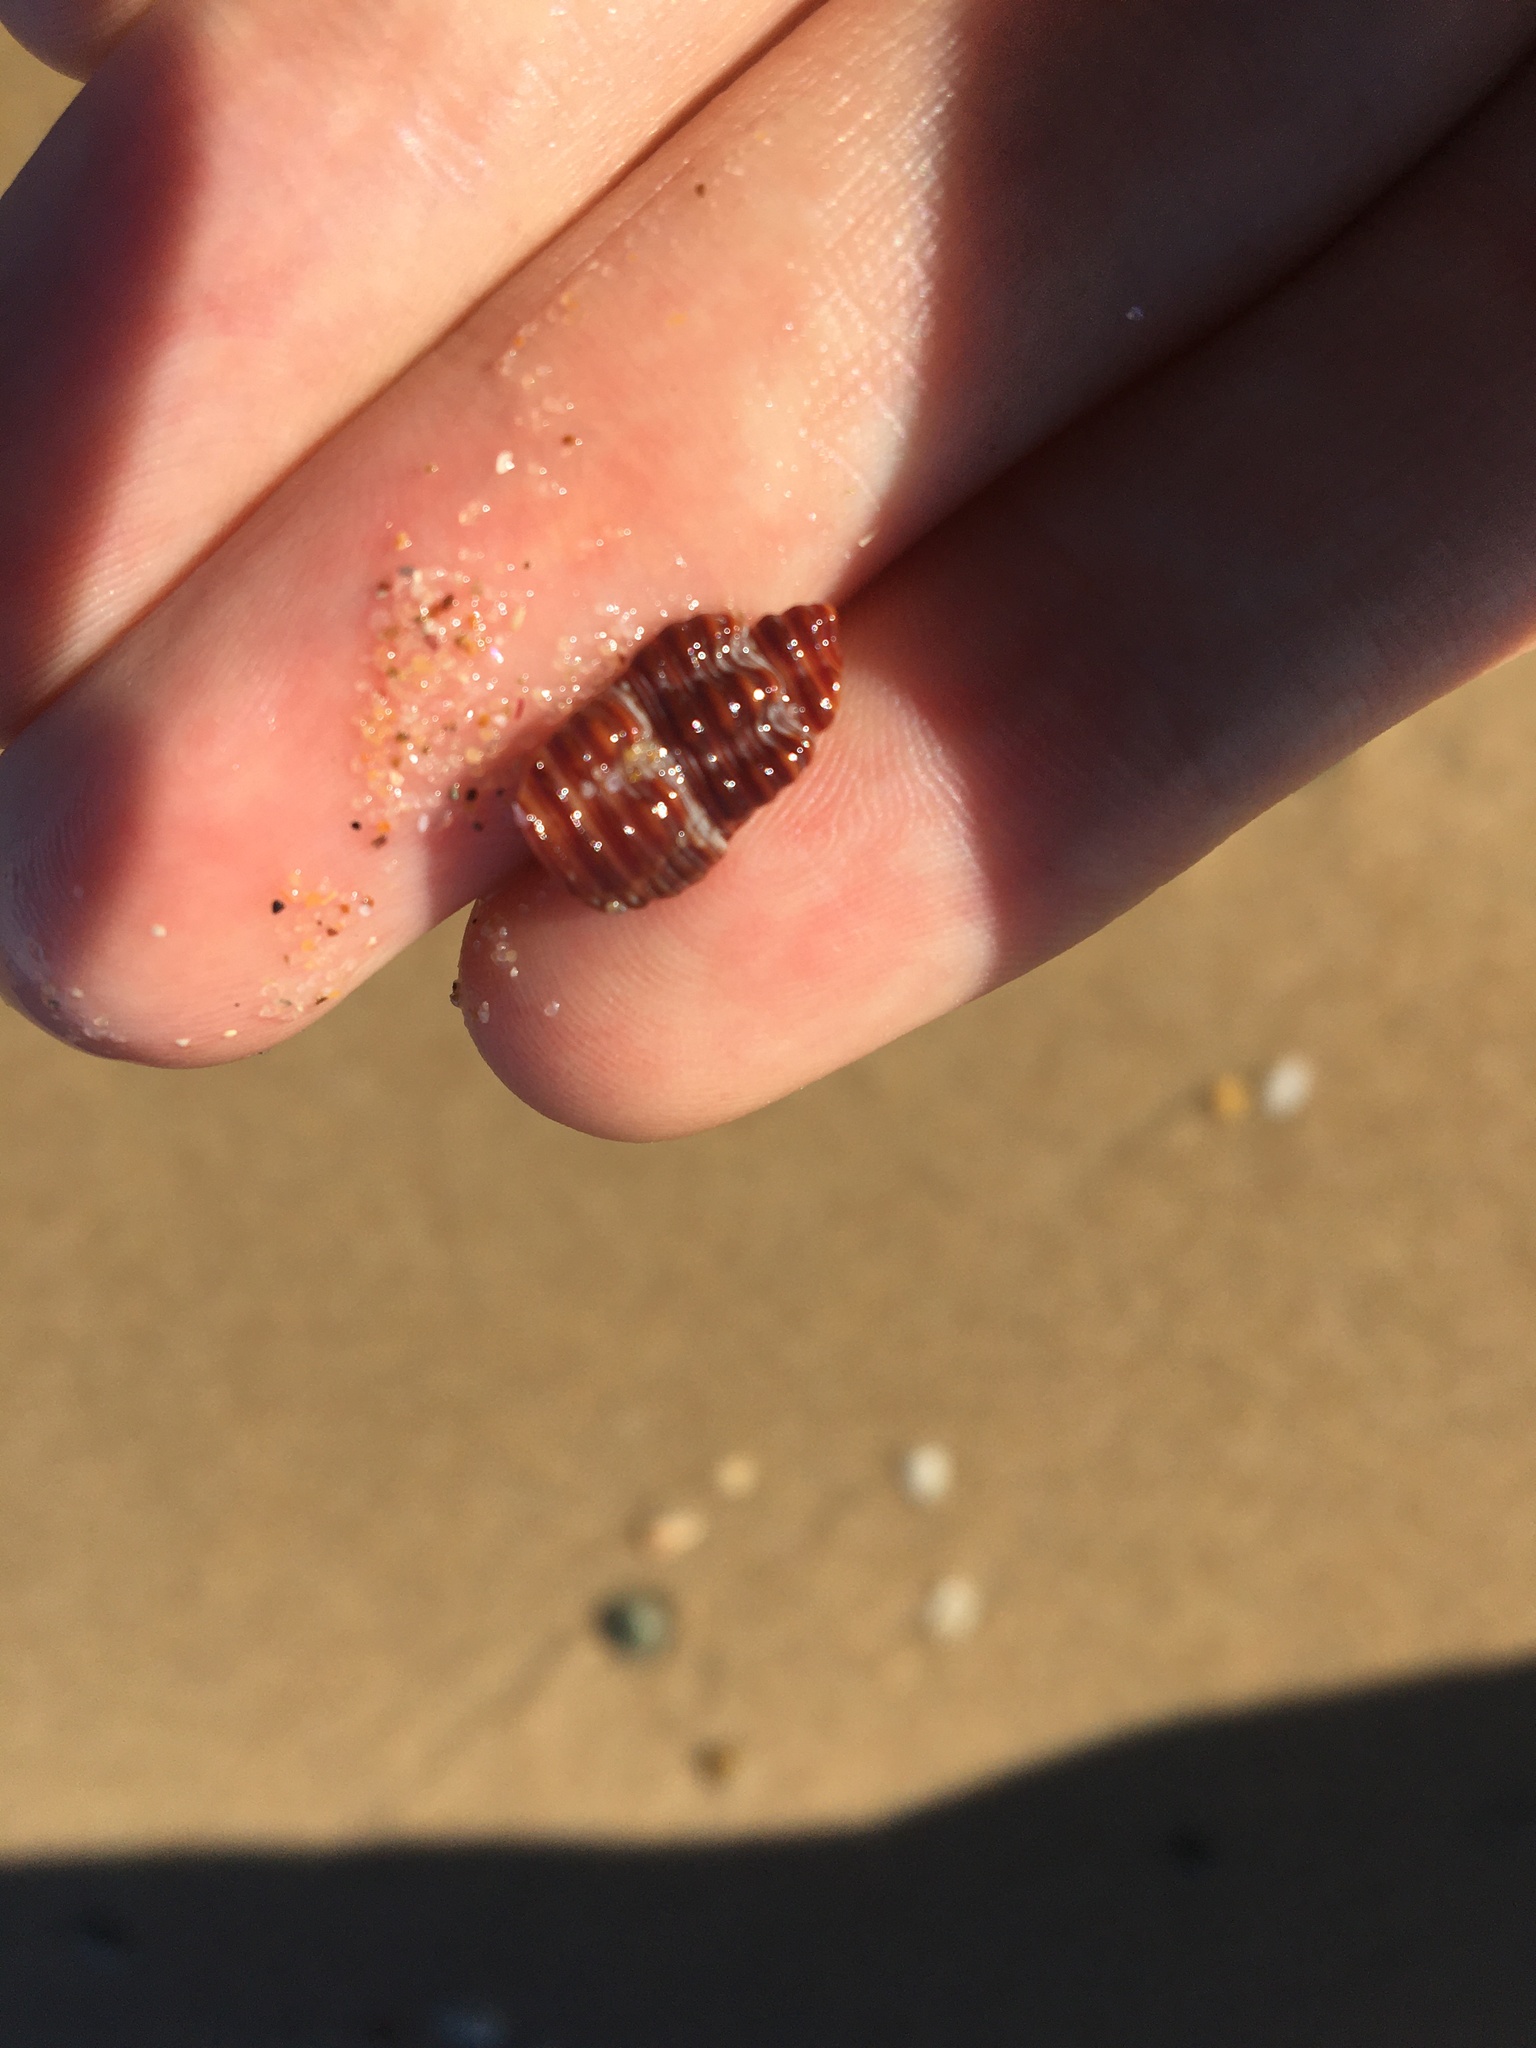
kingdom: Animalia
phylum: Mollusca
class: Gastropoda
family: Batillariidae
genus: Batillaria
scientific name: Batillaria australis
